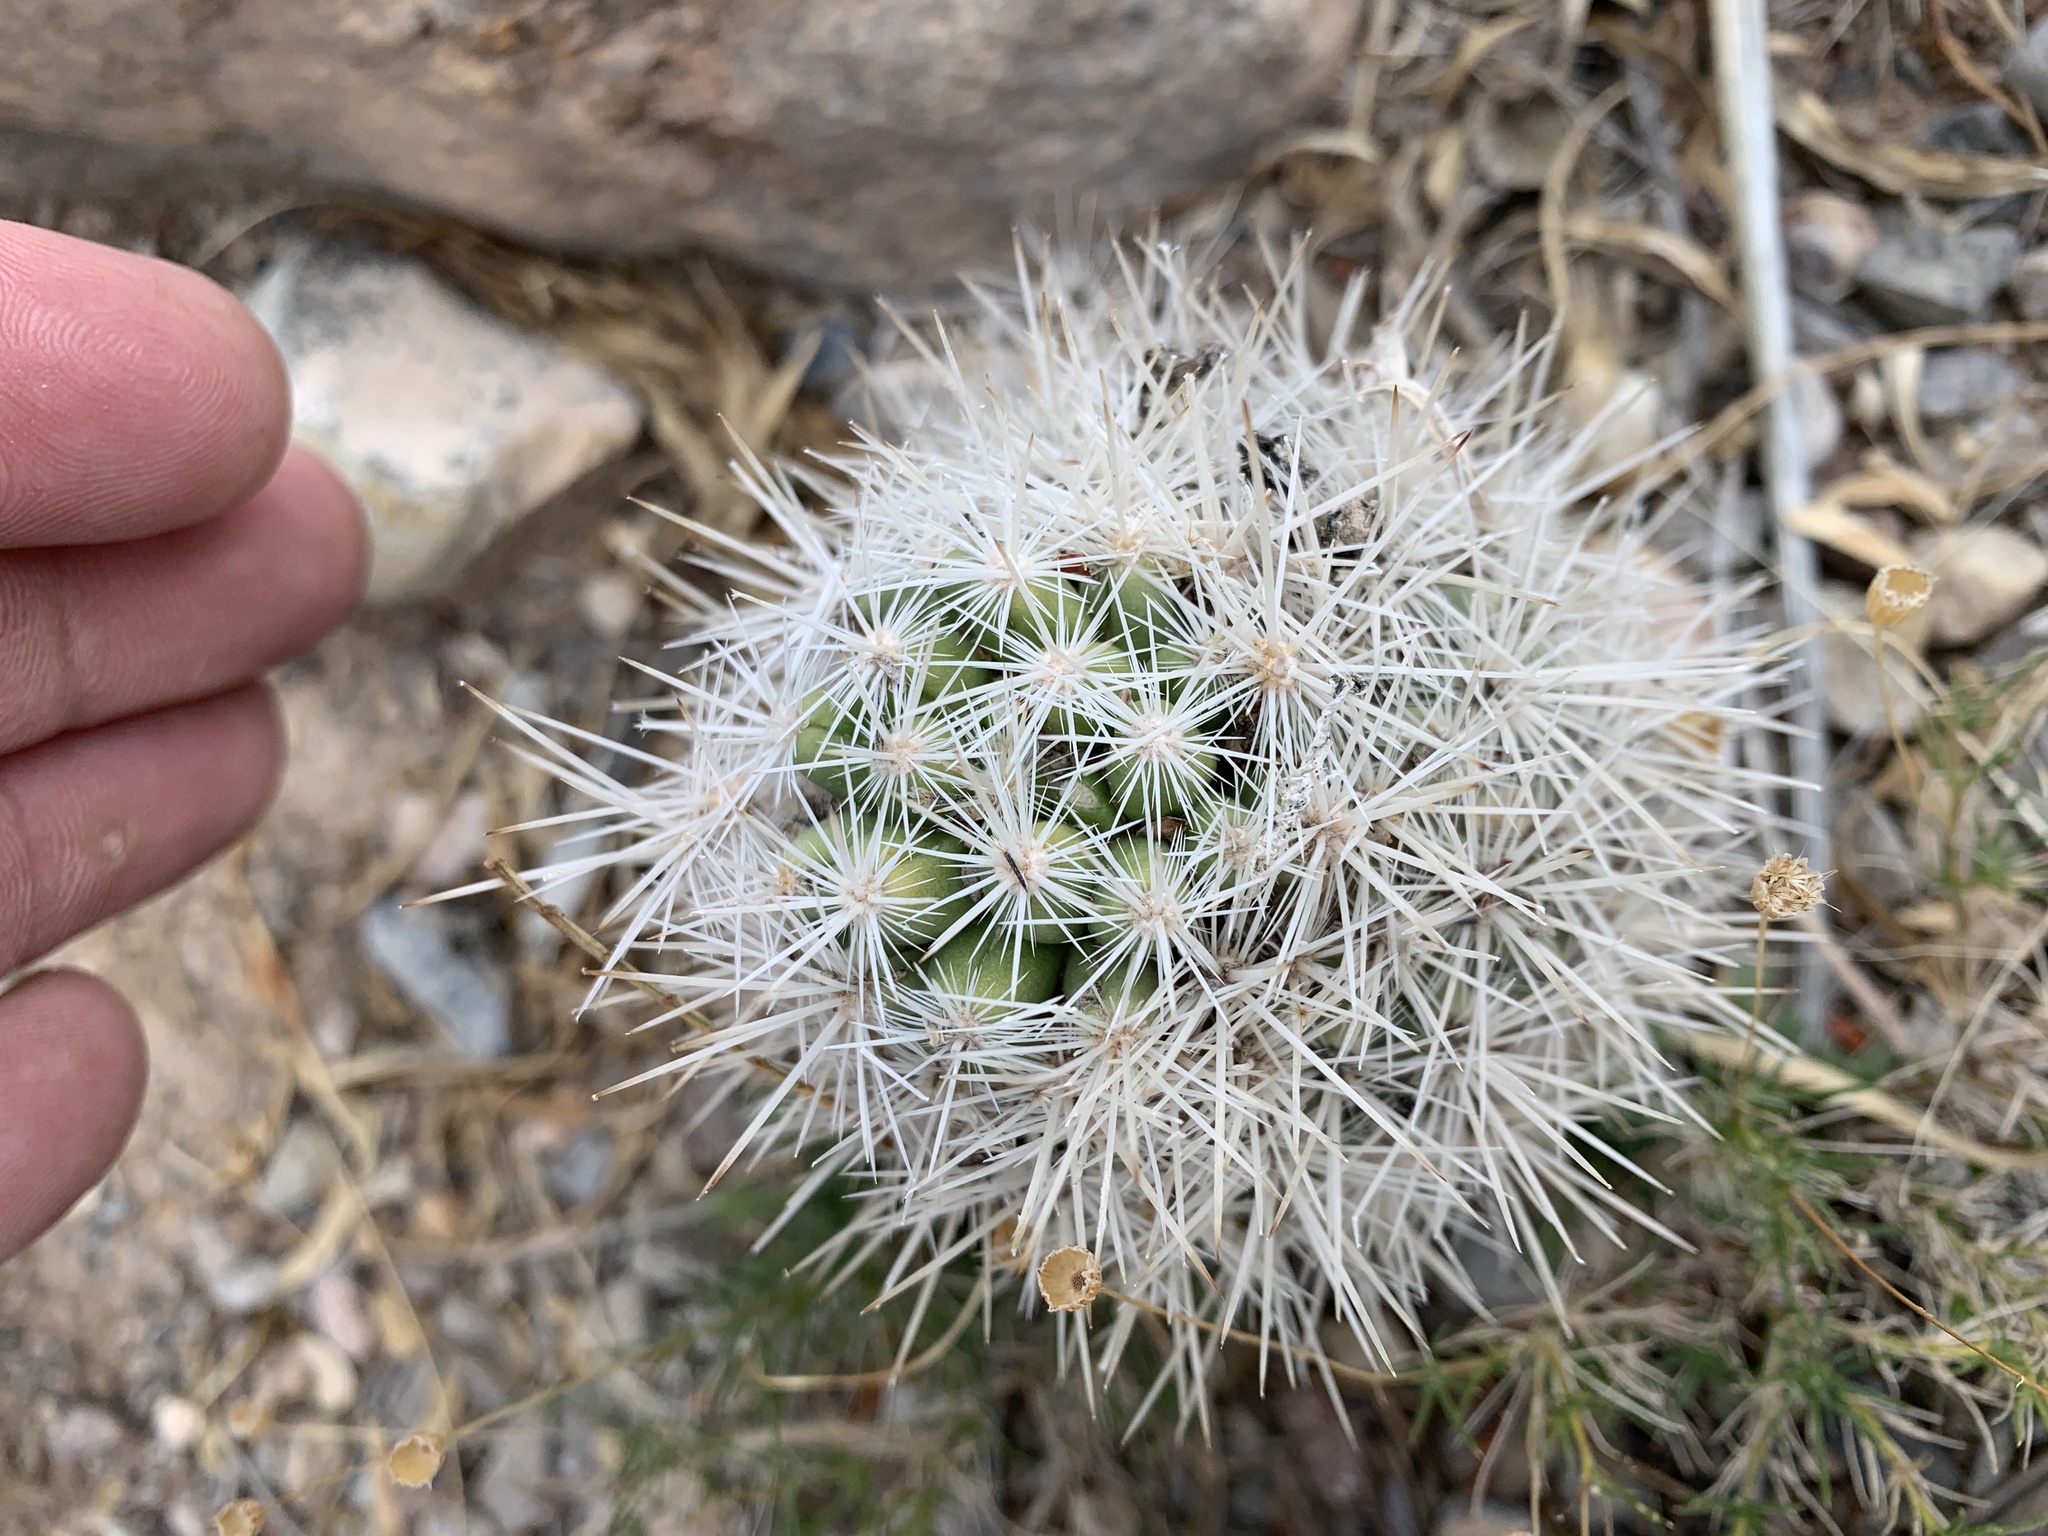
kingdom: Plantae
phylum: Tracheophyta
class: Magnoliopsida
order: Caryophyllales
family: Cactaceae
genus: Pelecyphora
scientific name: Pelecyphora sneedii
